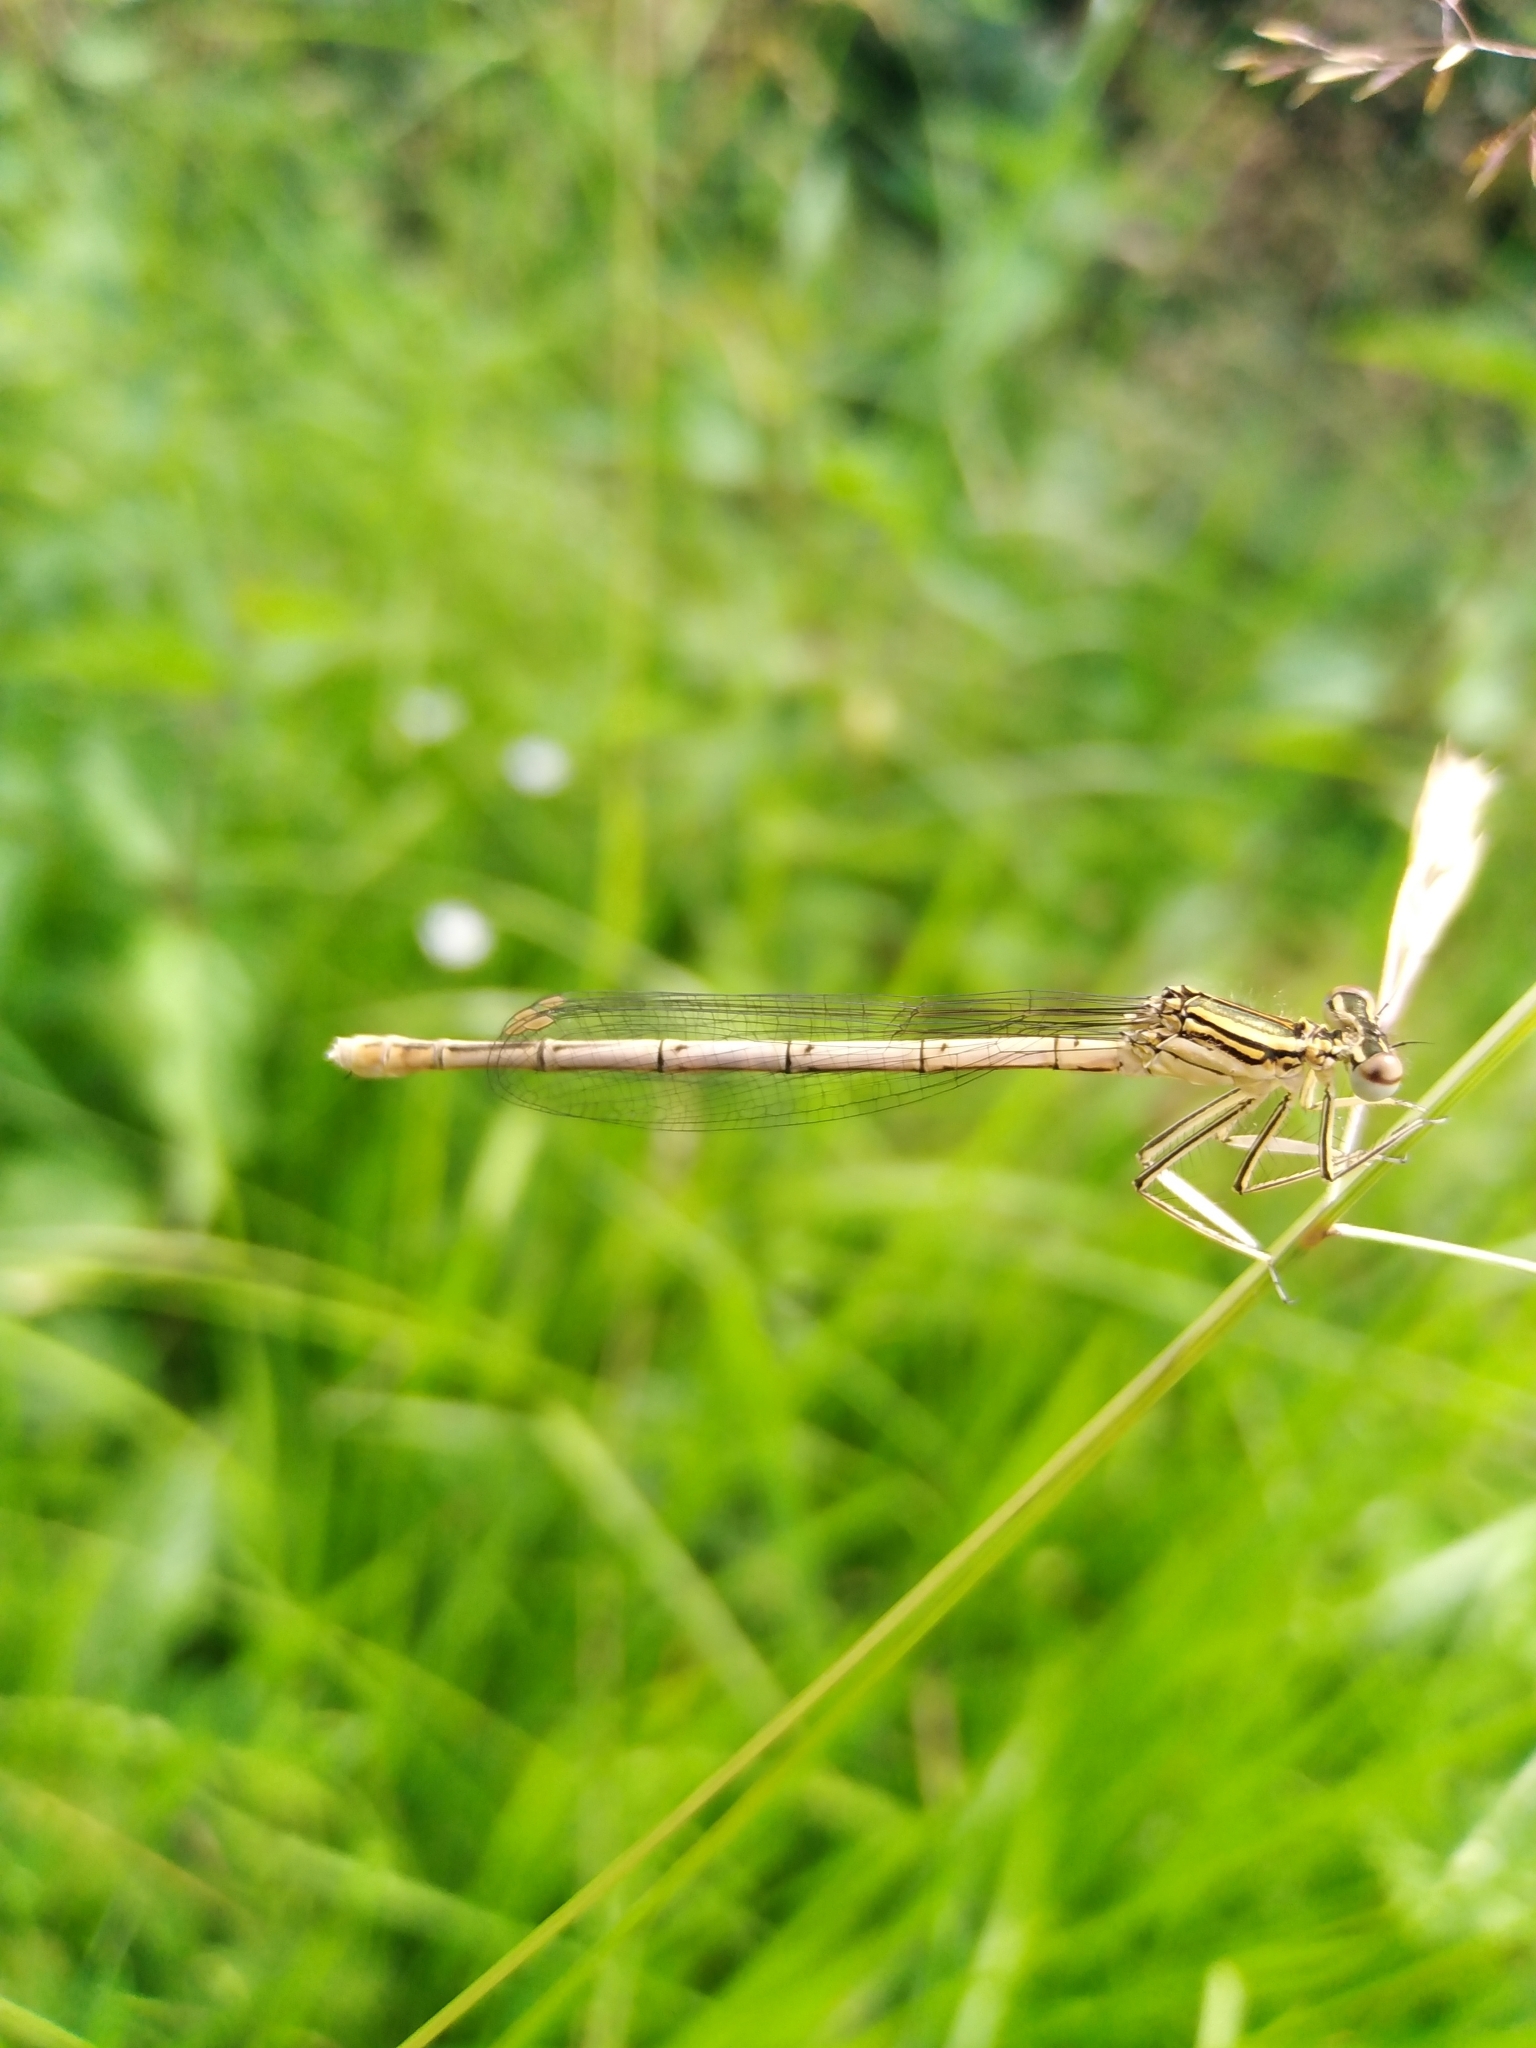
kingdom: Animalia
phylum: Arthropoda
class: Insecta
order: Odonata
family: Platycnemididae
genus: Platycnemis
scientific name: Platycnemis pennipes
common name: White-legged damselfly
